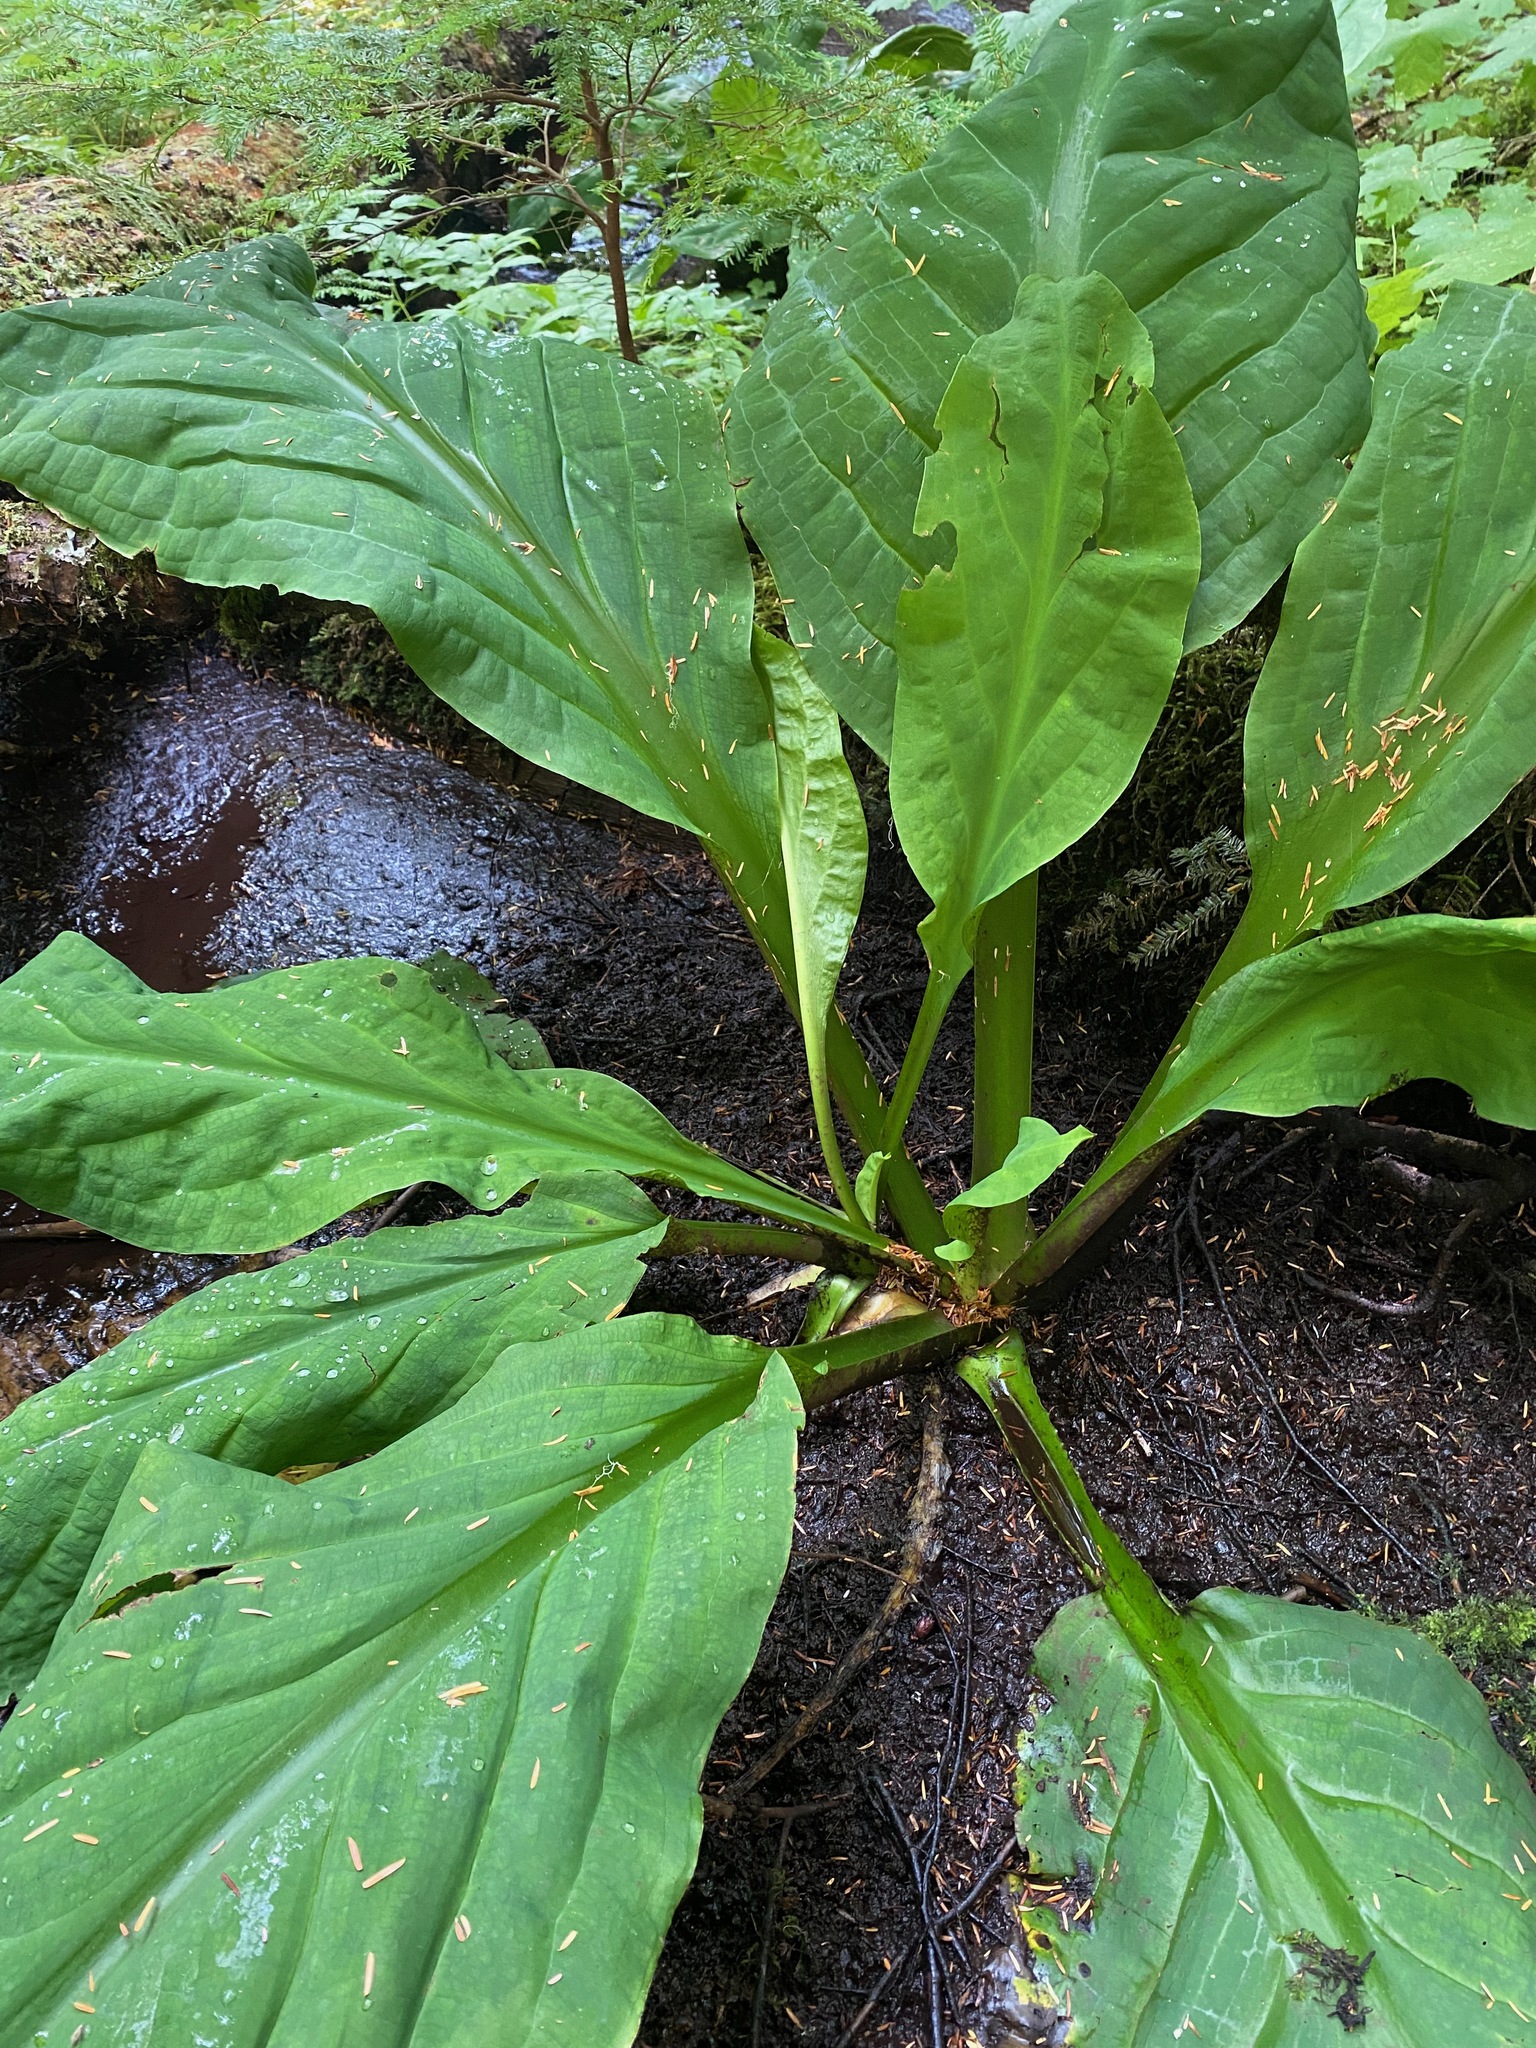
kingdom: Plantae
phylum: Tracheophyta
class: Liliopsida
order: Alismatales
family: Araceae
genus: Lysichiton
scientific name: Lysichiton americanus
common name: American skunk cabbage
